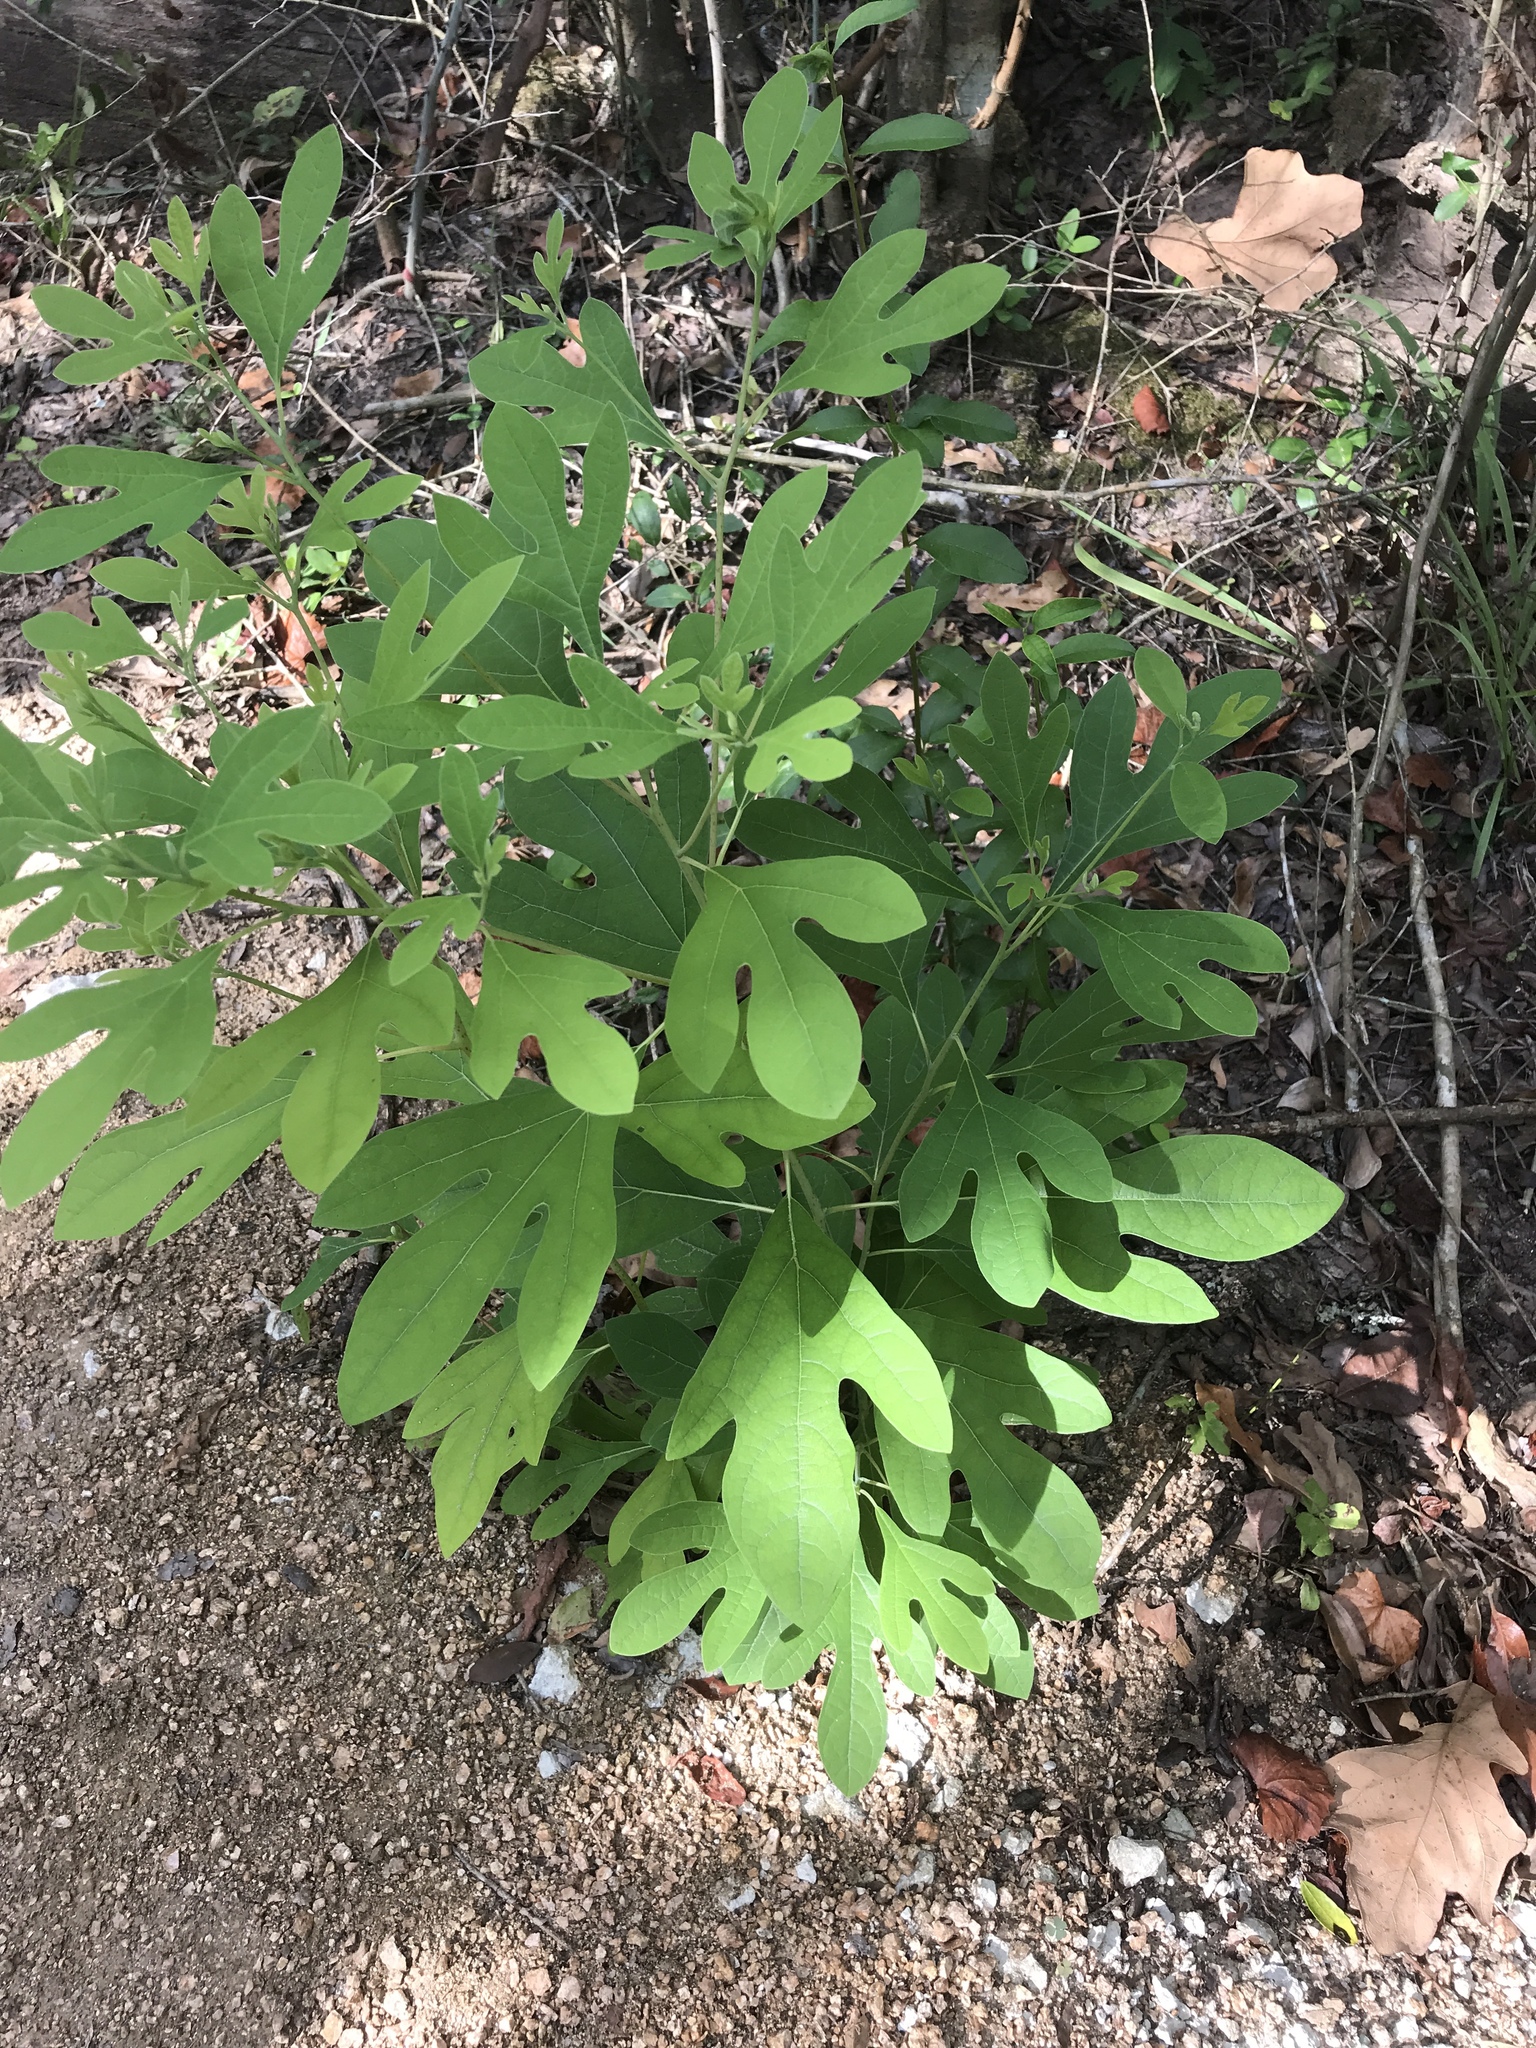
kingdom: Plantae
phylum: Tracheophyta
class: Magnoliopsida
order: Laurales
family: Lauraceae
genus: Sassafras
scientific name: Sassafras albidum
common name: Sassafras
